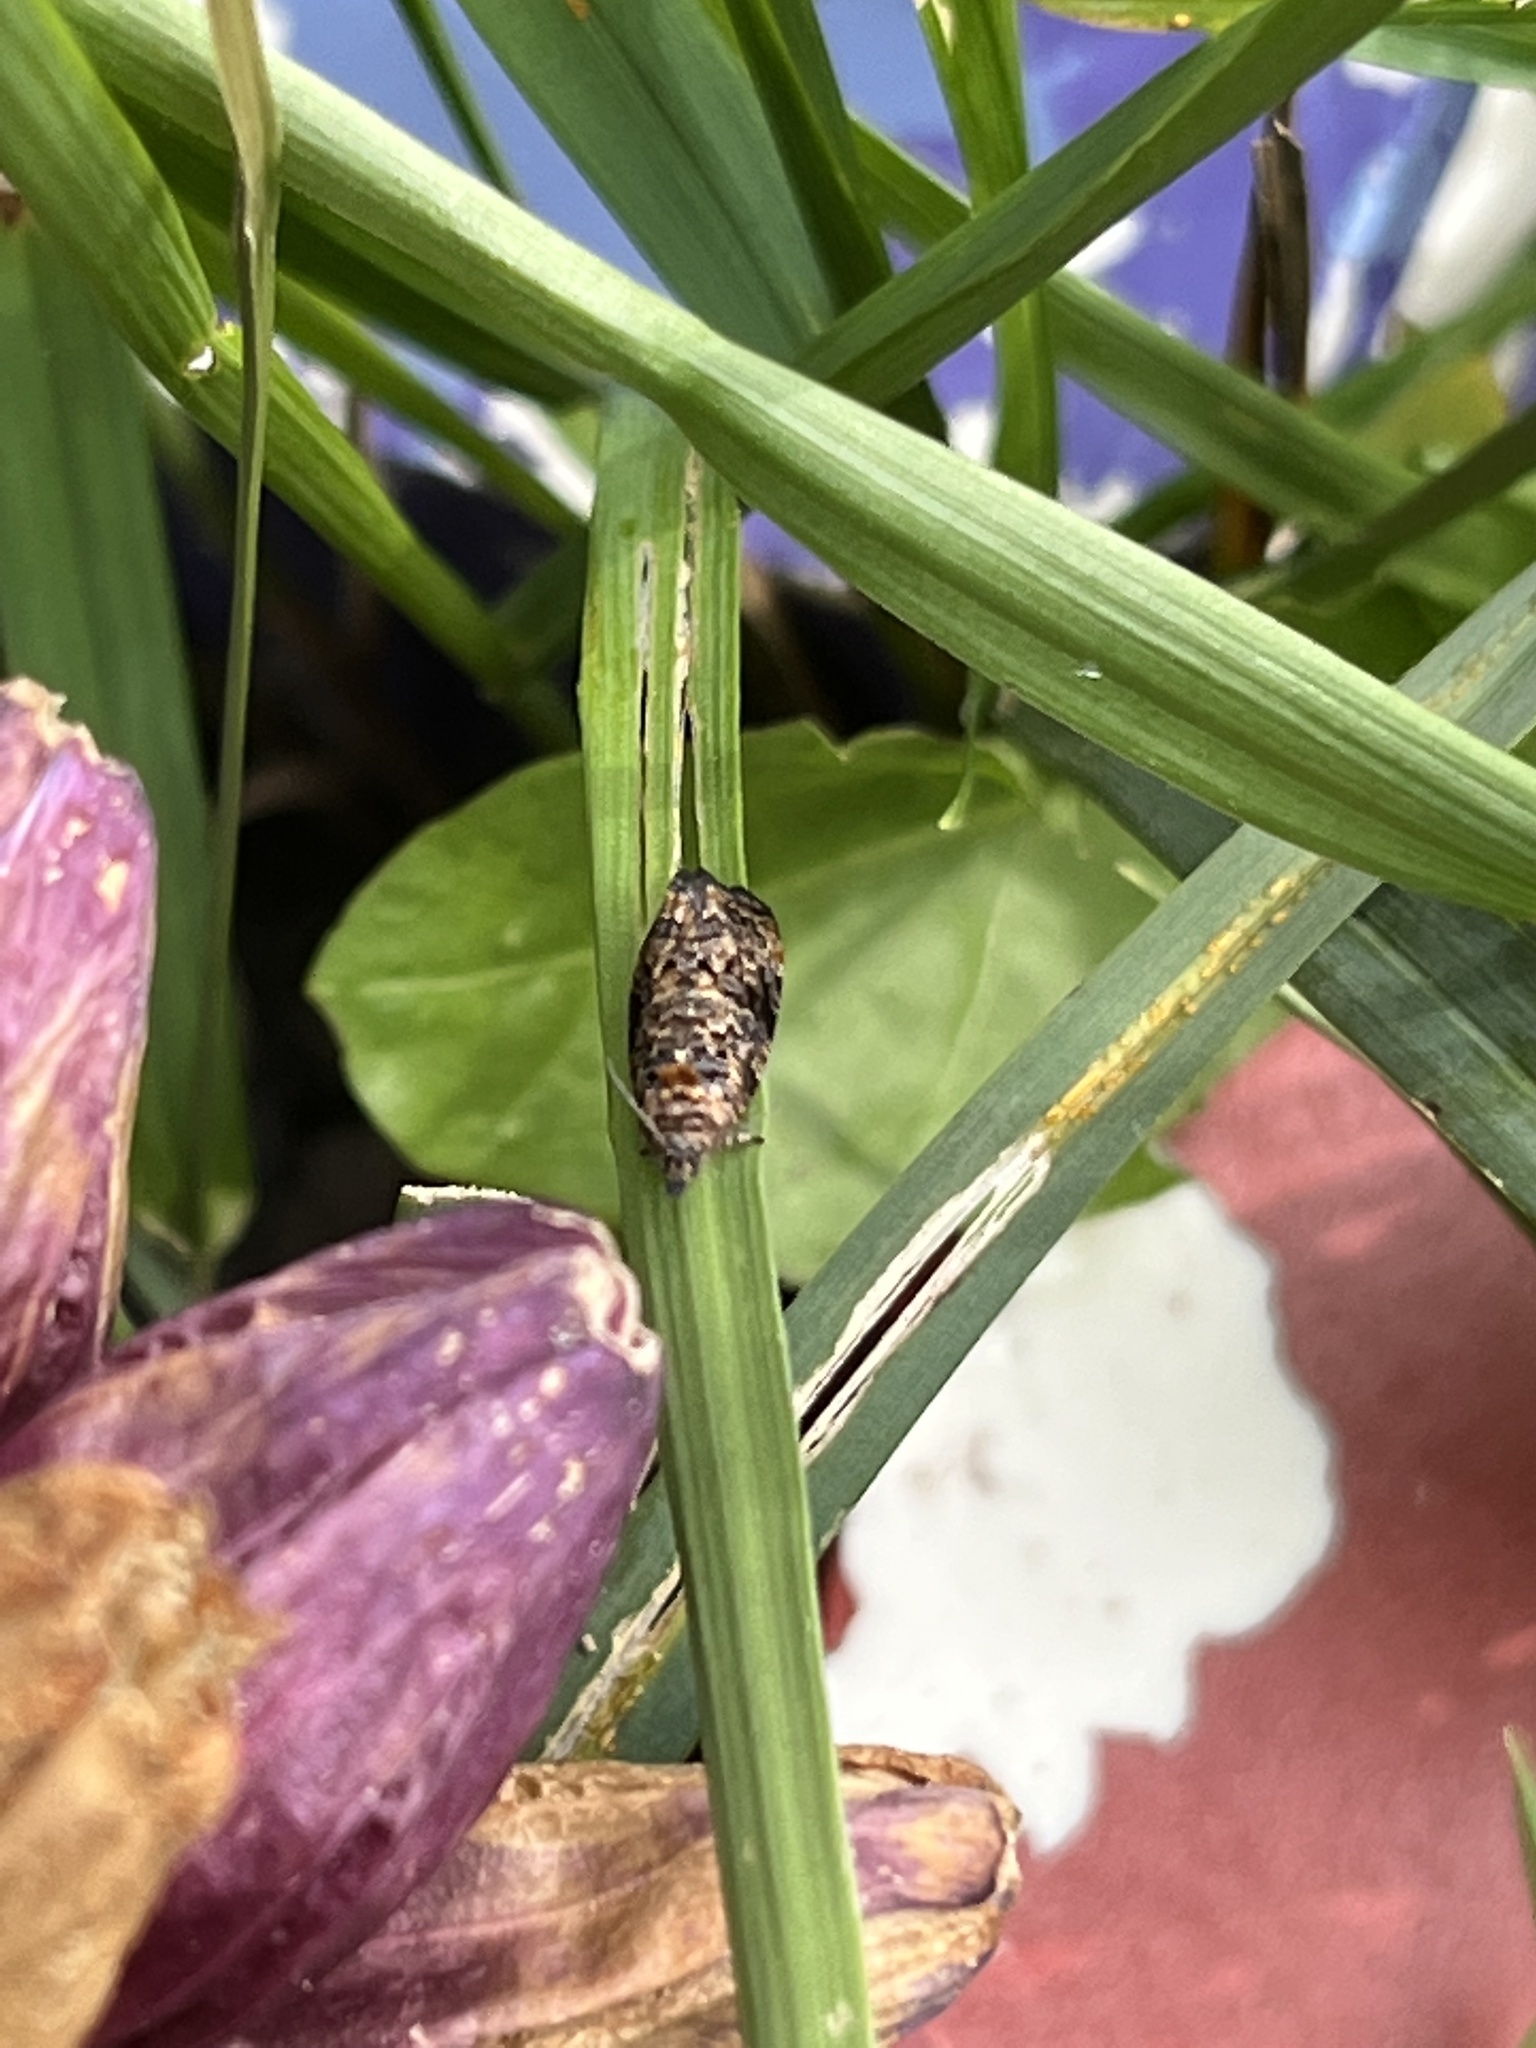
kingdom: Animalia
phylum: Arthropoda
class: Insecta
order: Lepidoptera
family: Tortricidae
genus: Endothenia
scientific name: Endothenia hebesana
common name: Verbena bud moth
